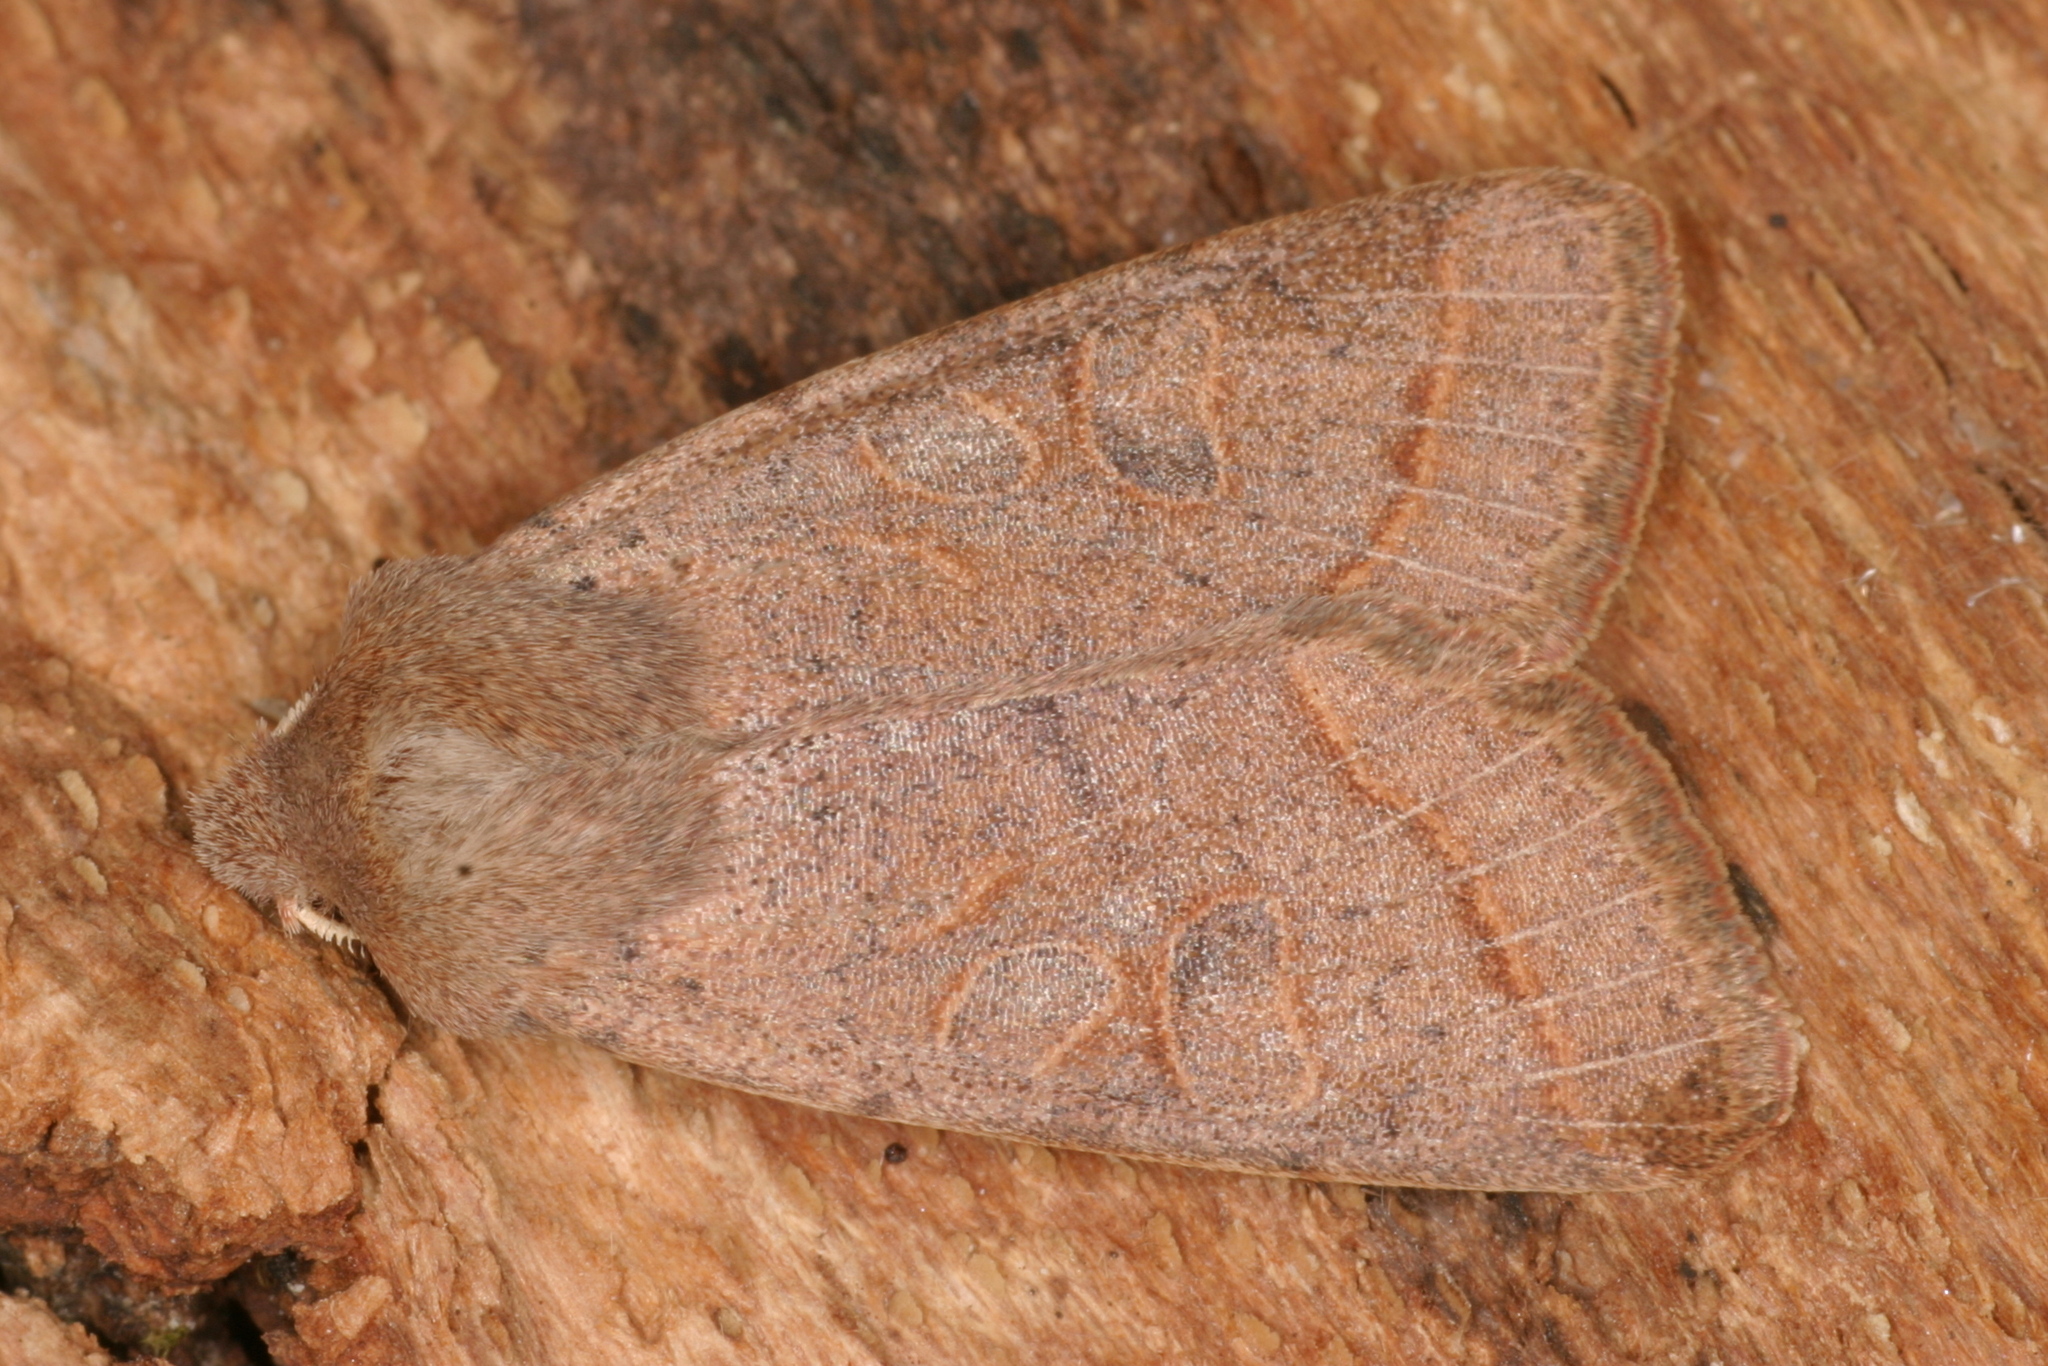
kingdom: Animalia
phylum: Arthropoda
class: Insecta
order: Lepidoptera
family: Noctuidae
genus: Orthosia
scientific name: Orthosia cerasi
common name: Common quaker
